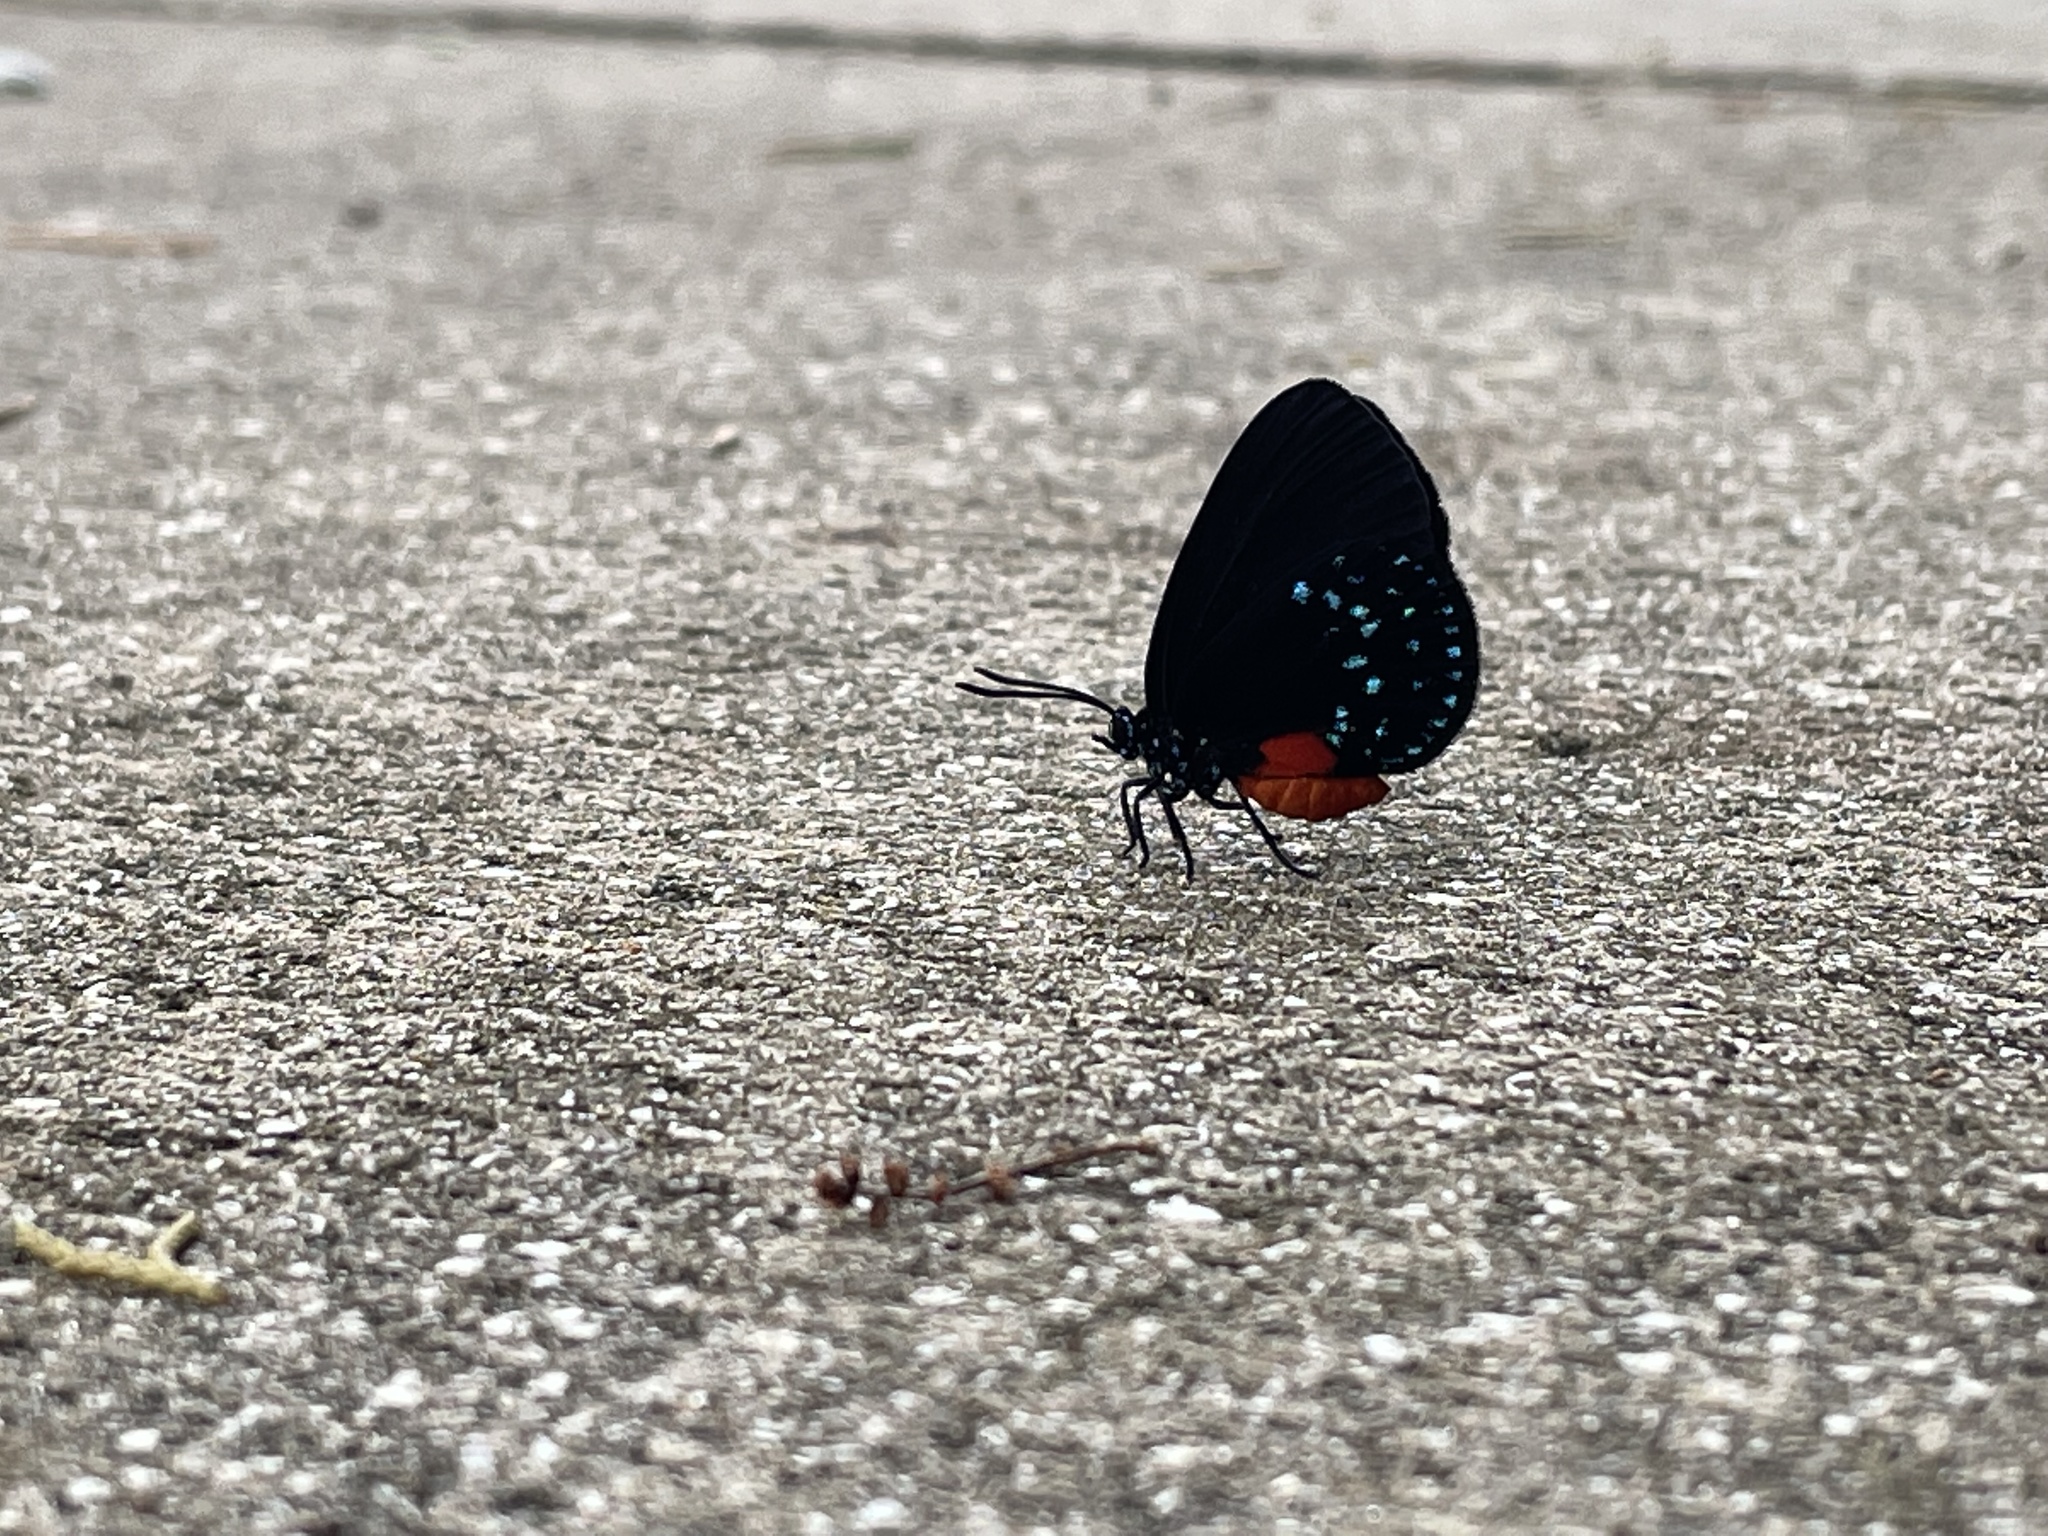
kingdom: Animalia
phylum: Arthropoda
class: Insecta
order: Lepidoptera
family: Lycaenidae
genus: Eumaeus
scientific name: Eumaeus atala
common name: Atala
